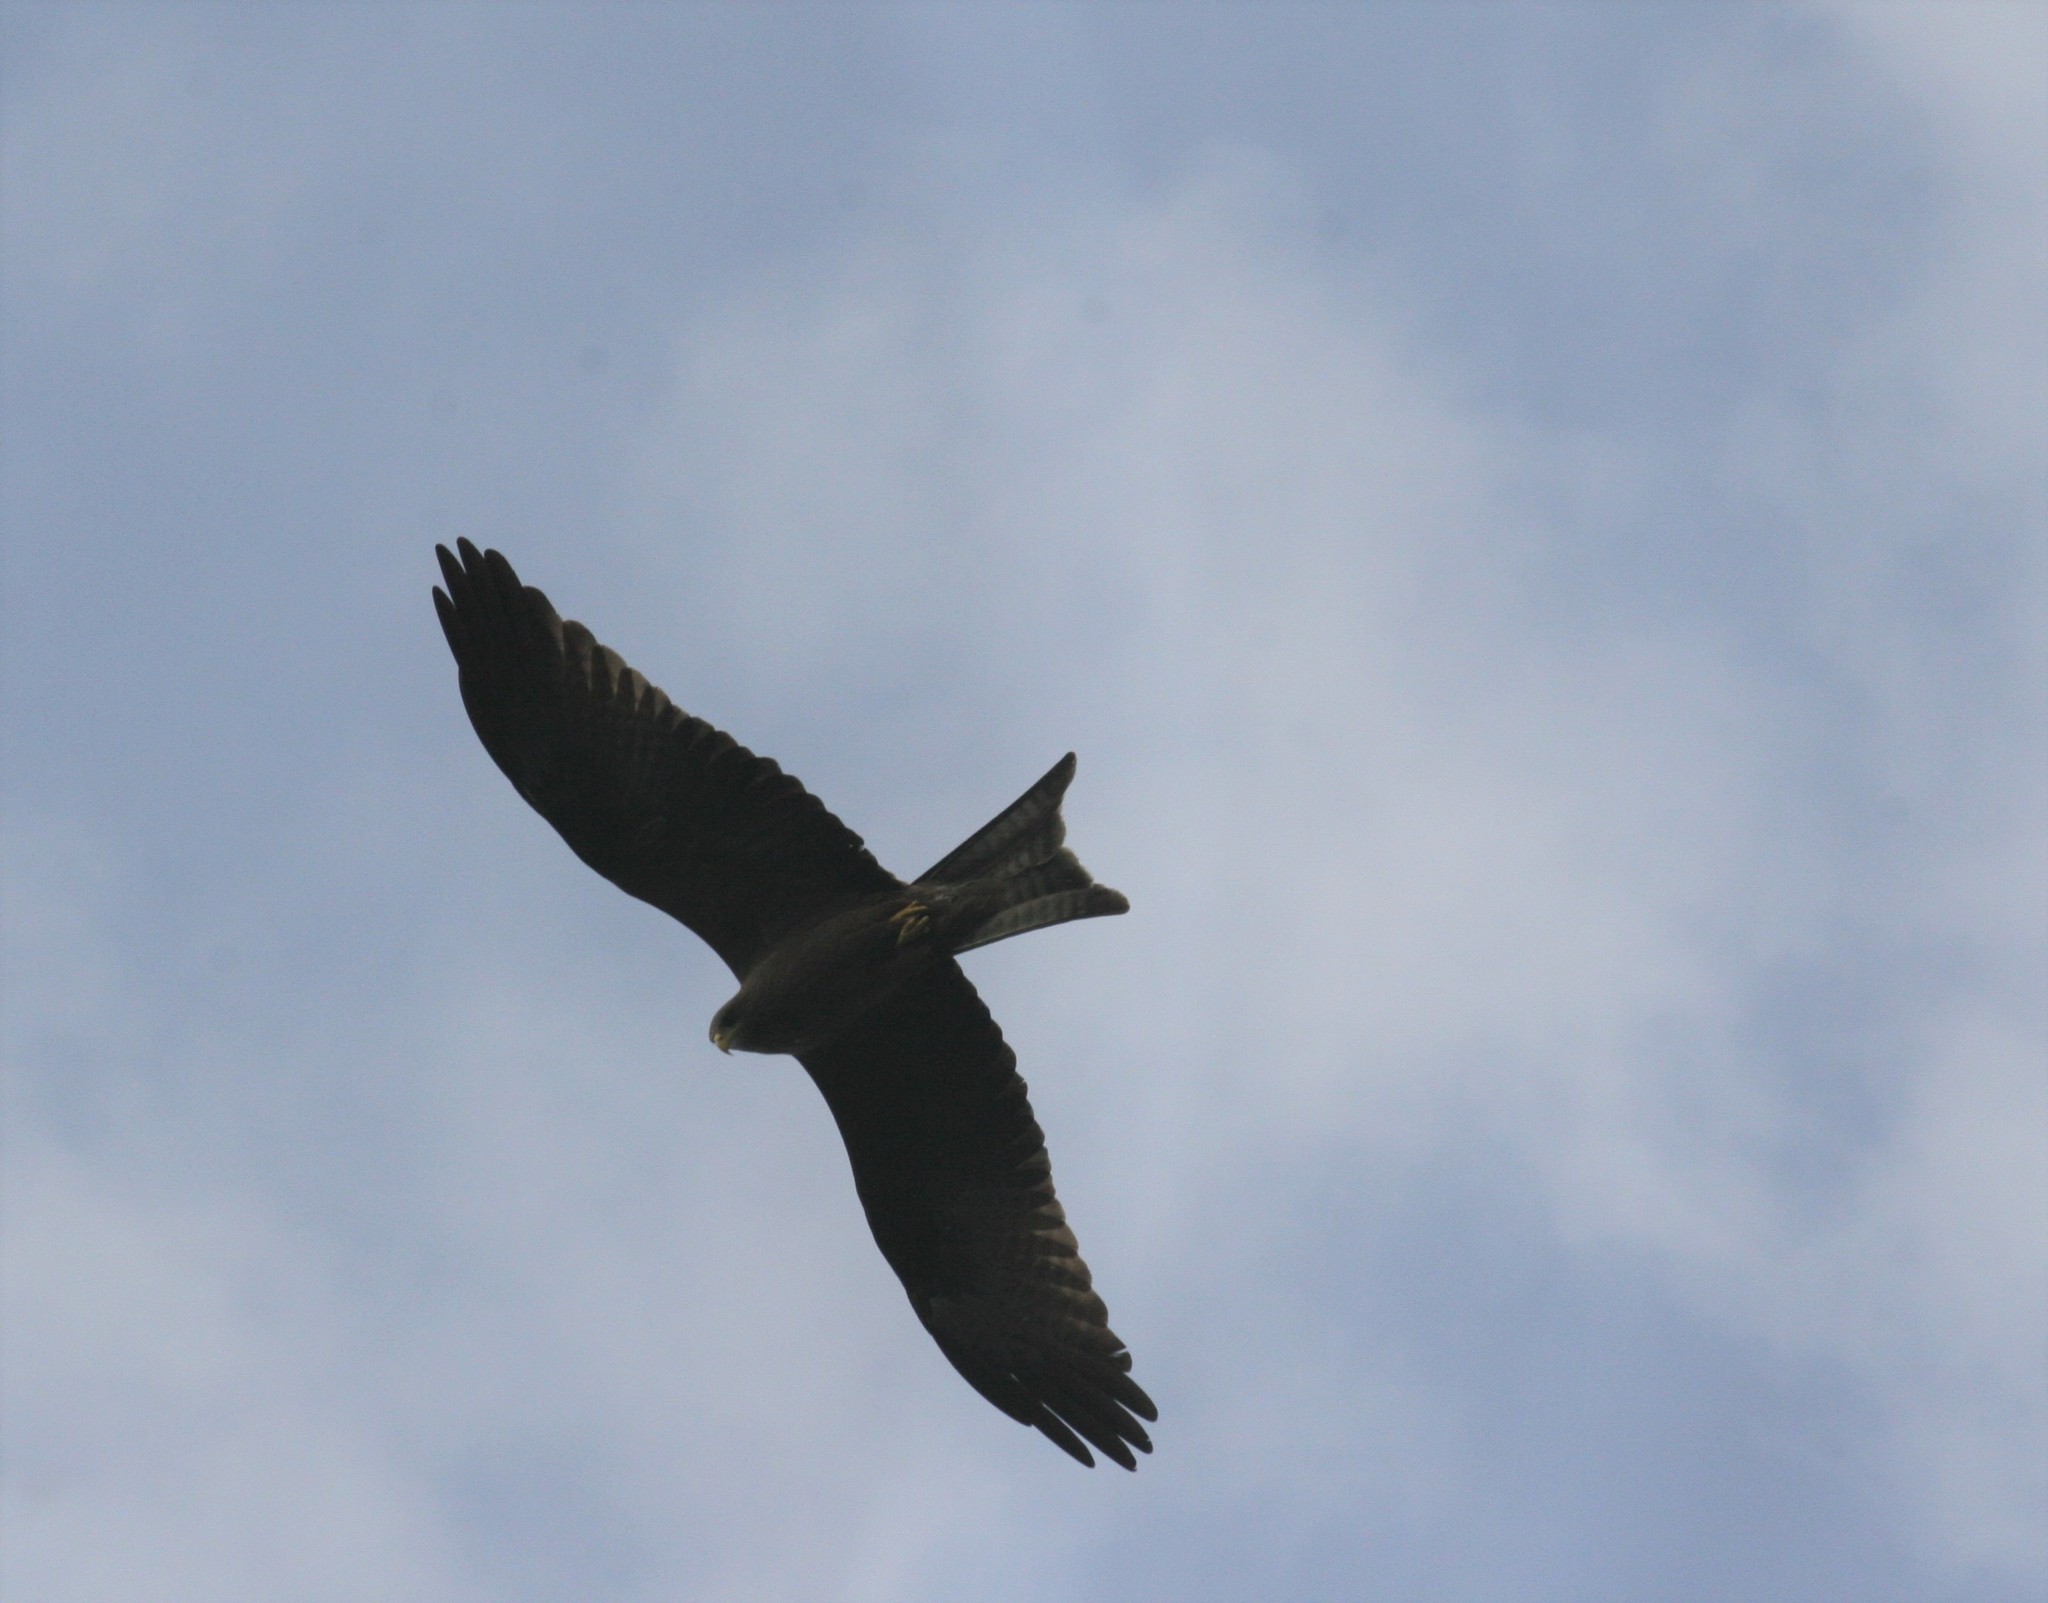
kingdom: Animalia
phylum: Chordata
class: Aves
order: Accipitriformes
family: Accipitridae
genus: Milvus
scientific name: Milvus migrans
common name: Black kite
